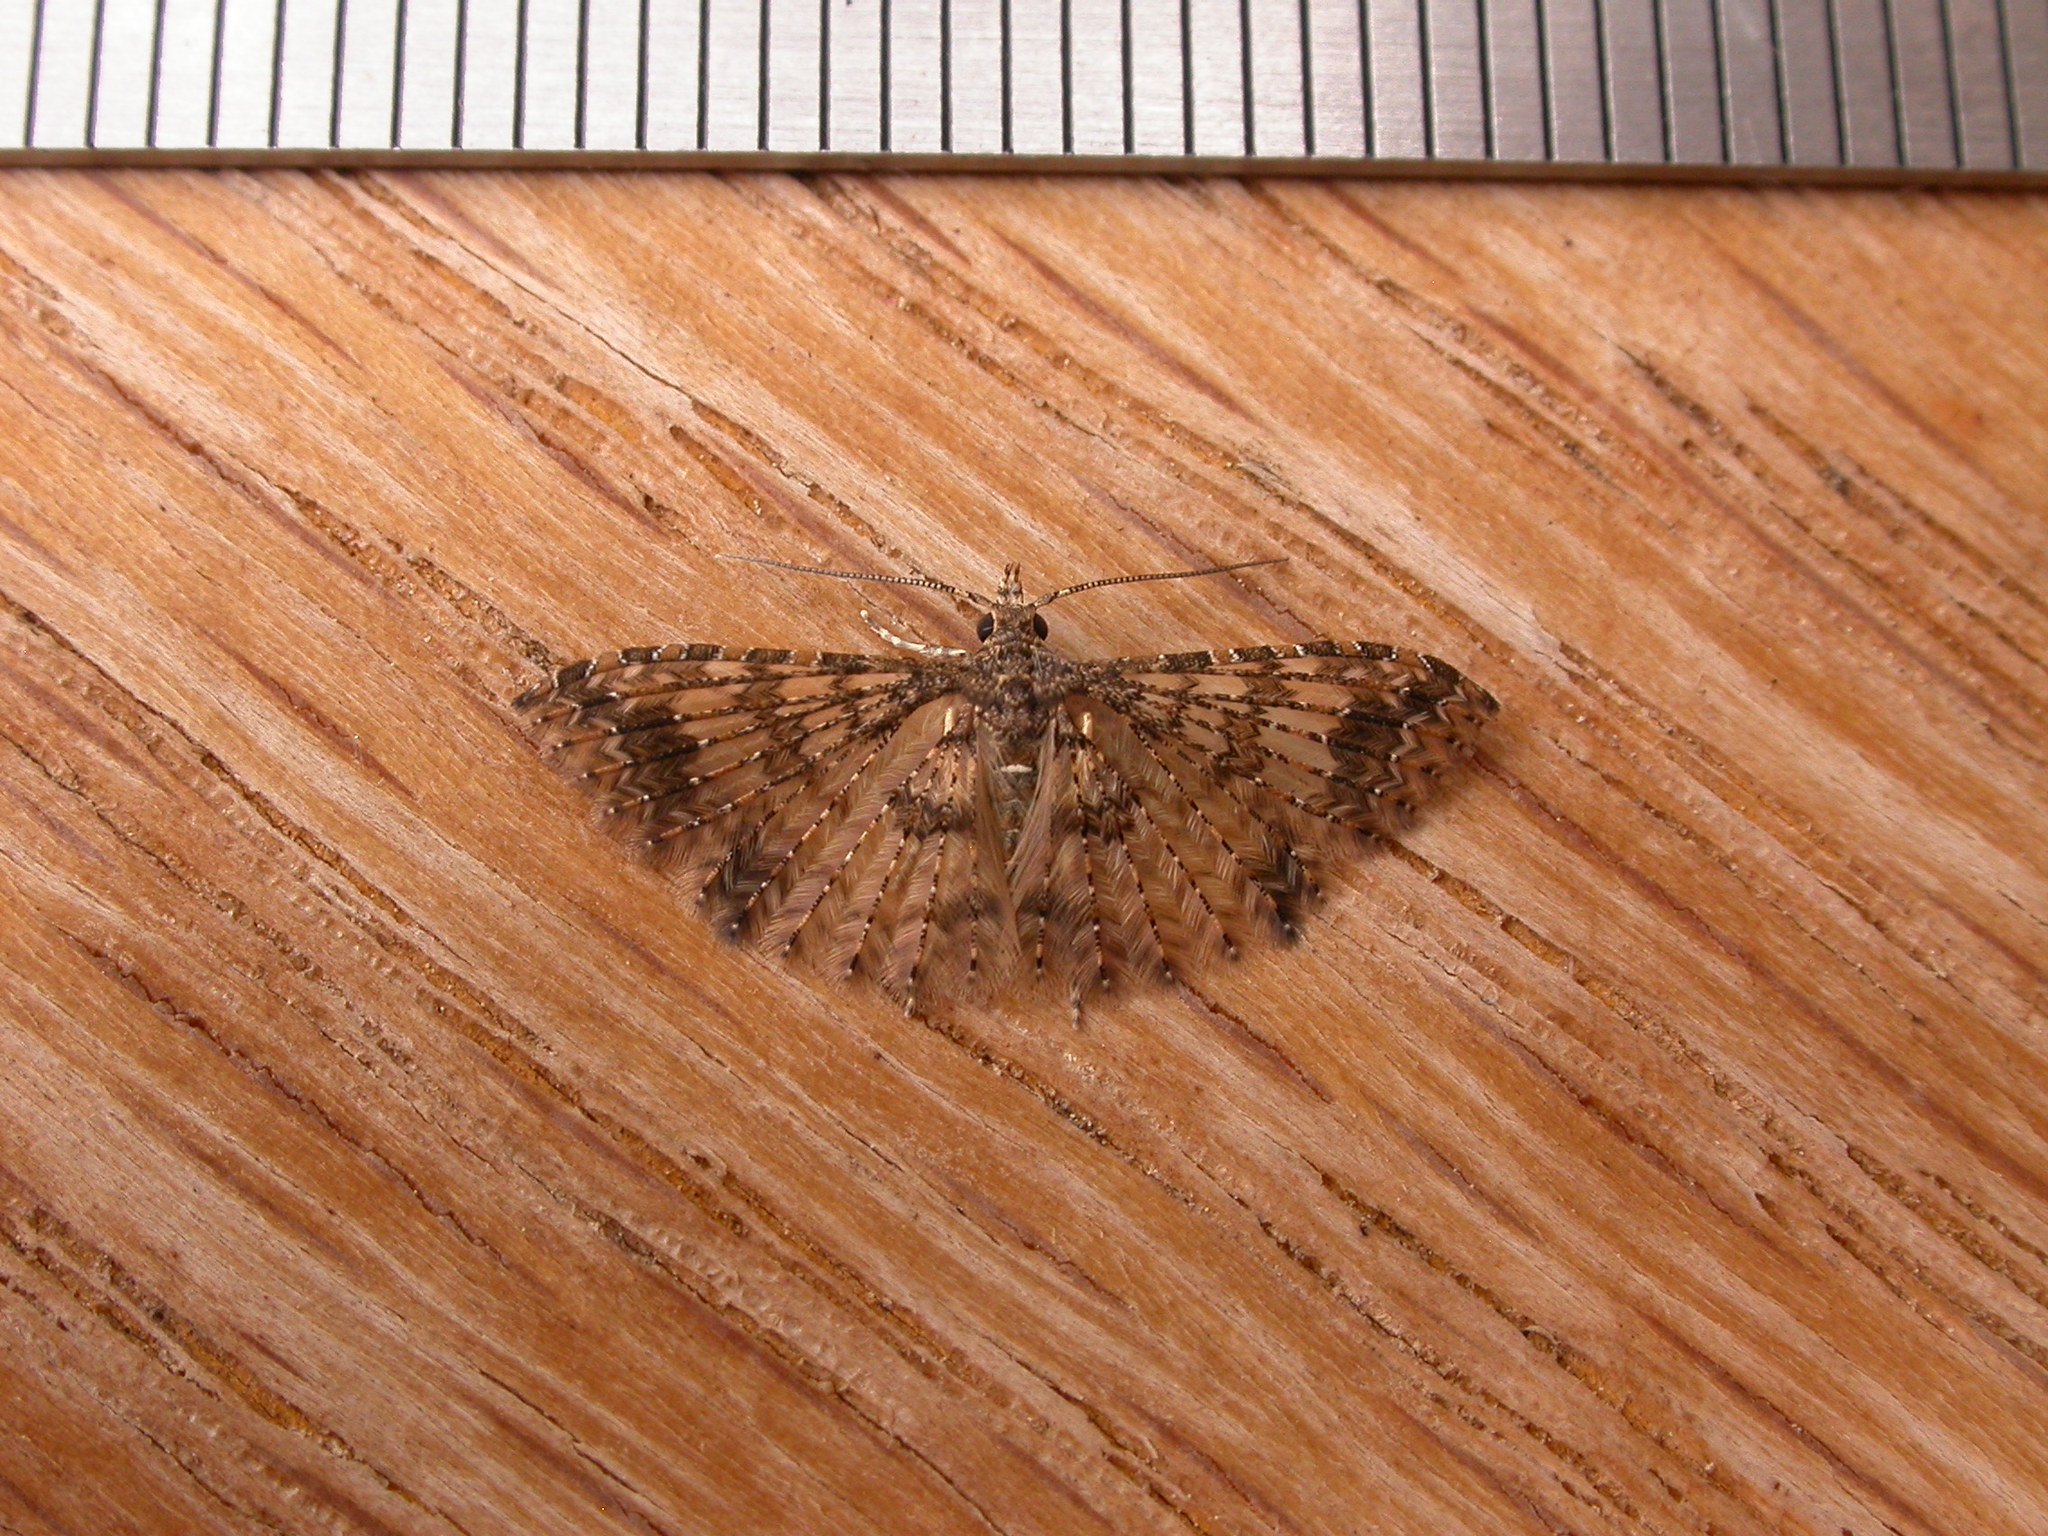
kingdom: Animalia
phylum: Arthropoda
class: Insecta
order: Lepidoptera
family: Alucitidae
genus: Alucita
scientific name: Alucita phricodes
